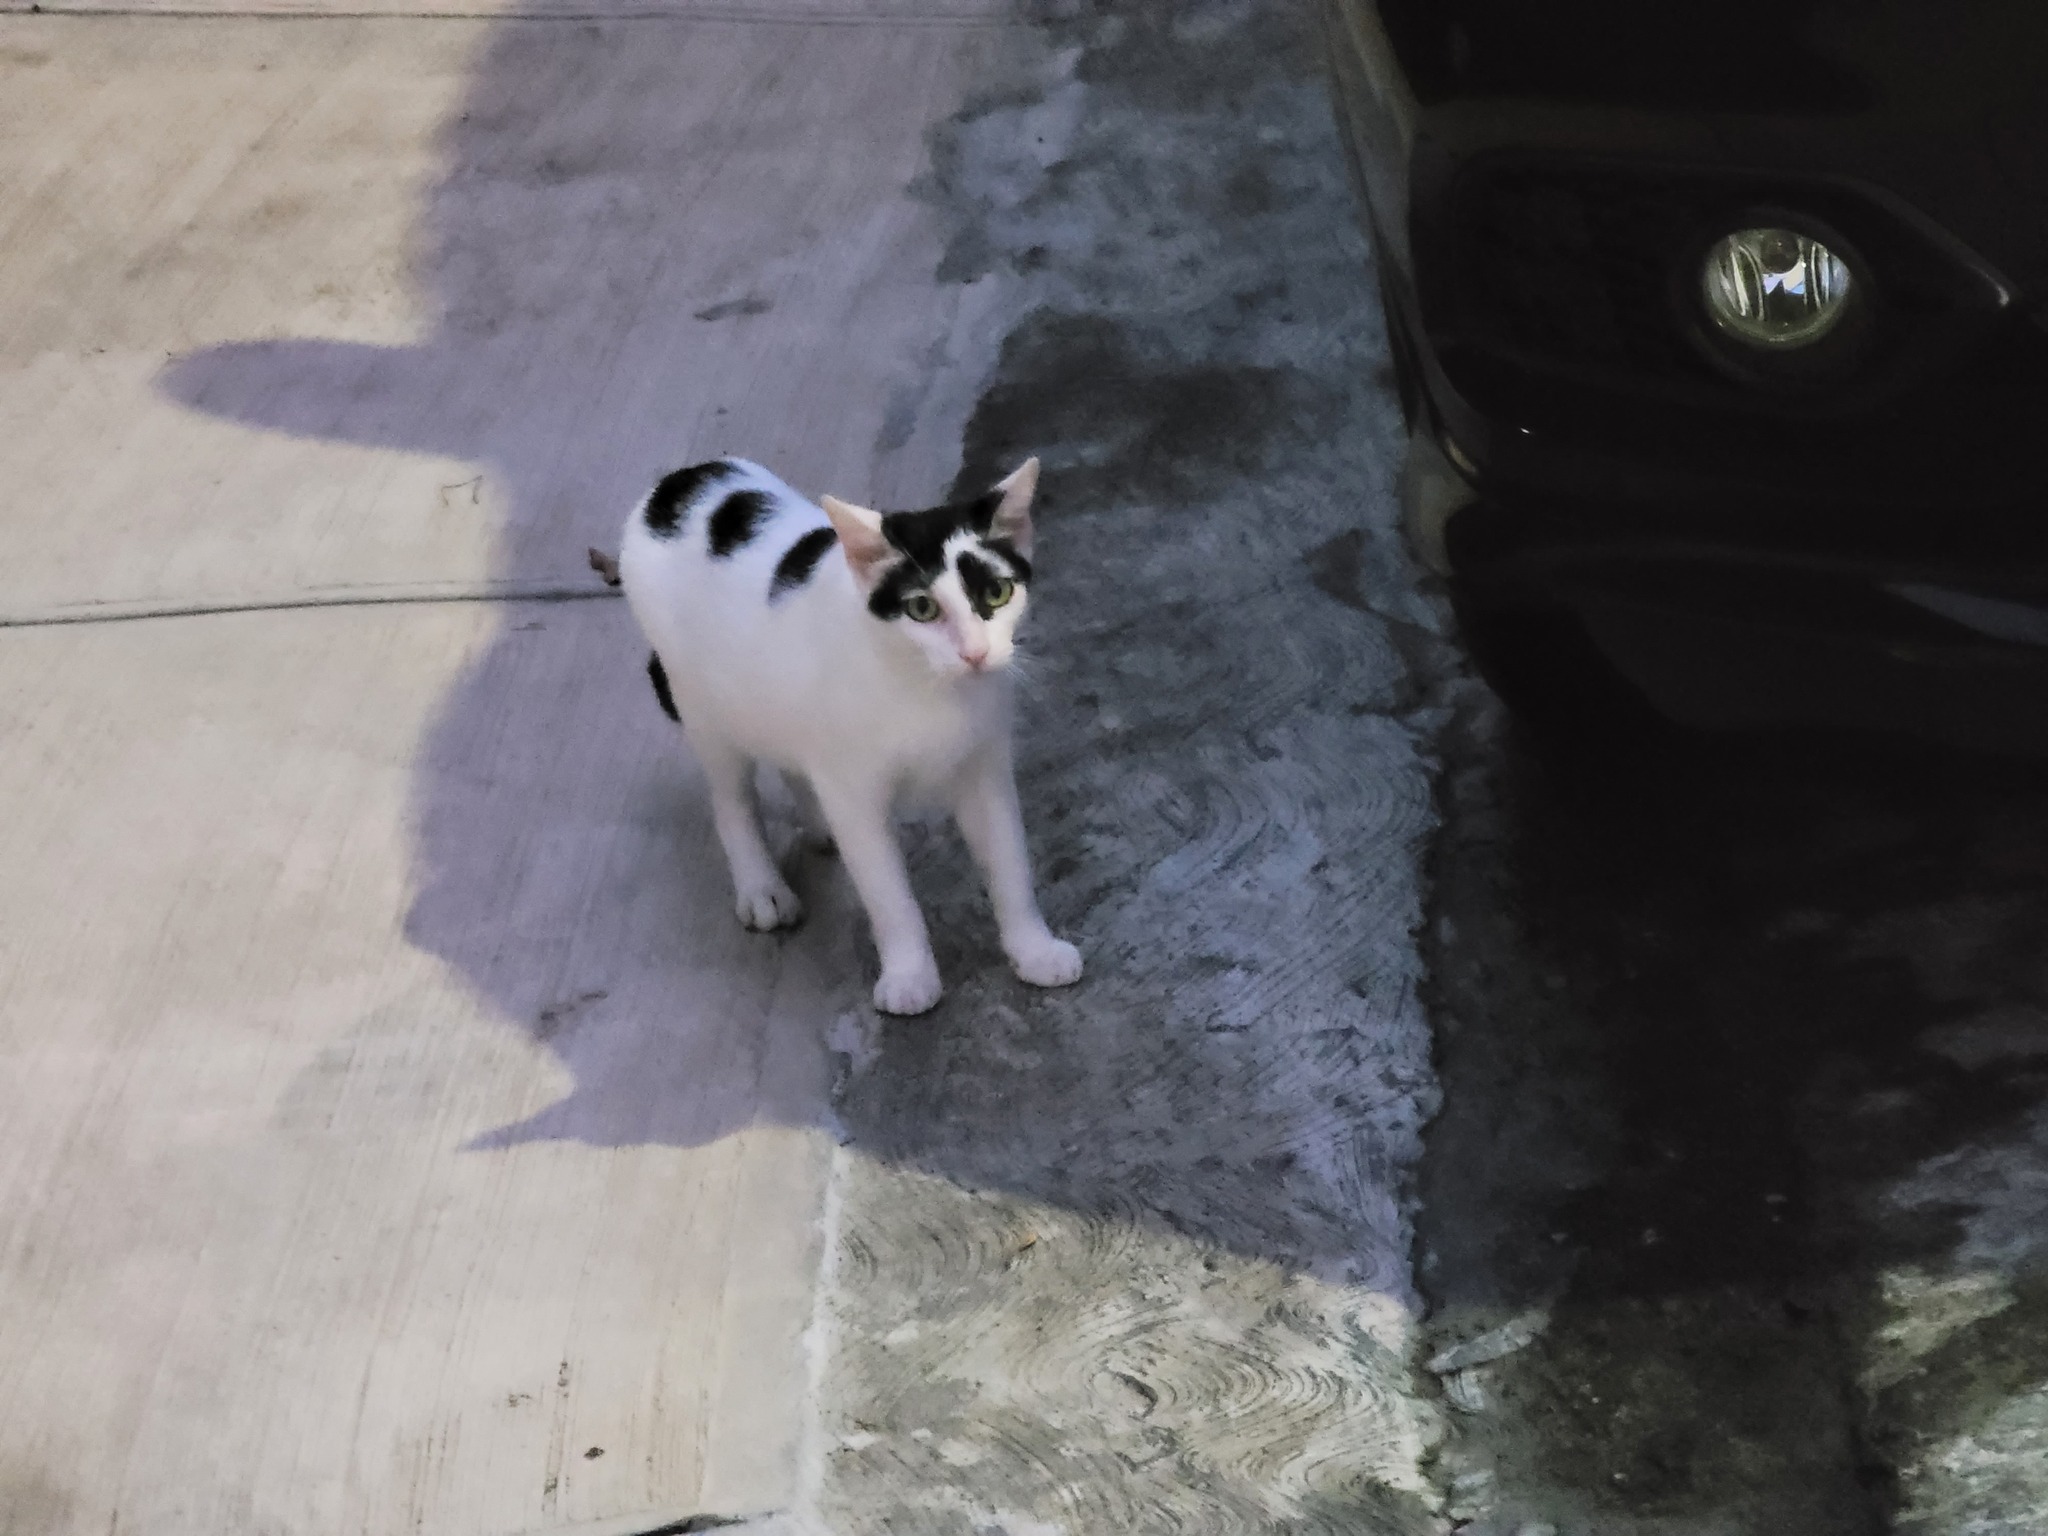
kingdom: Animalia
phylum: Chordata
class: Mammalia
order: Carnivora
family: Felidae
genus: Felis
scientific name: Felis catus
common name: Domestic cat
